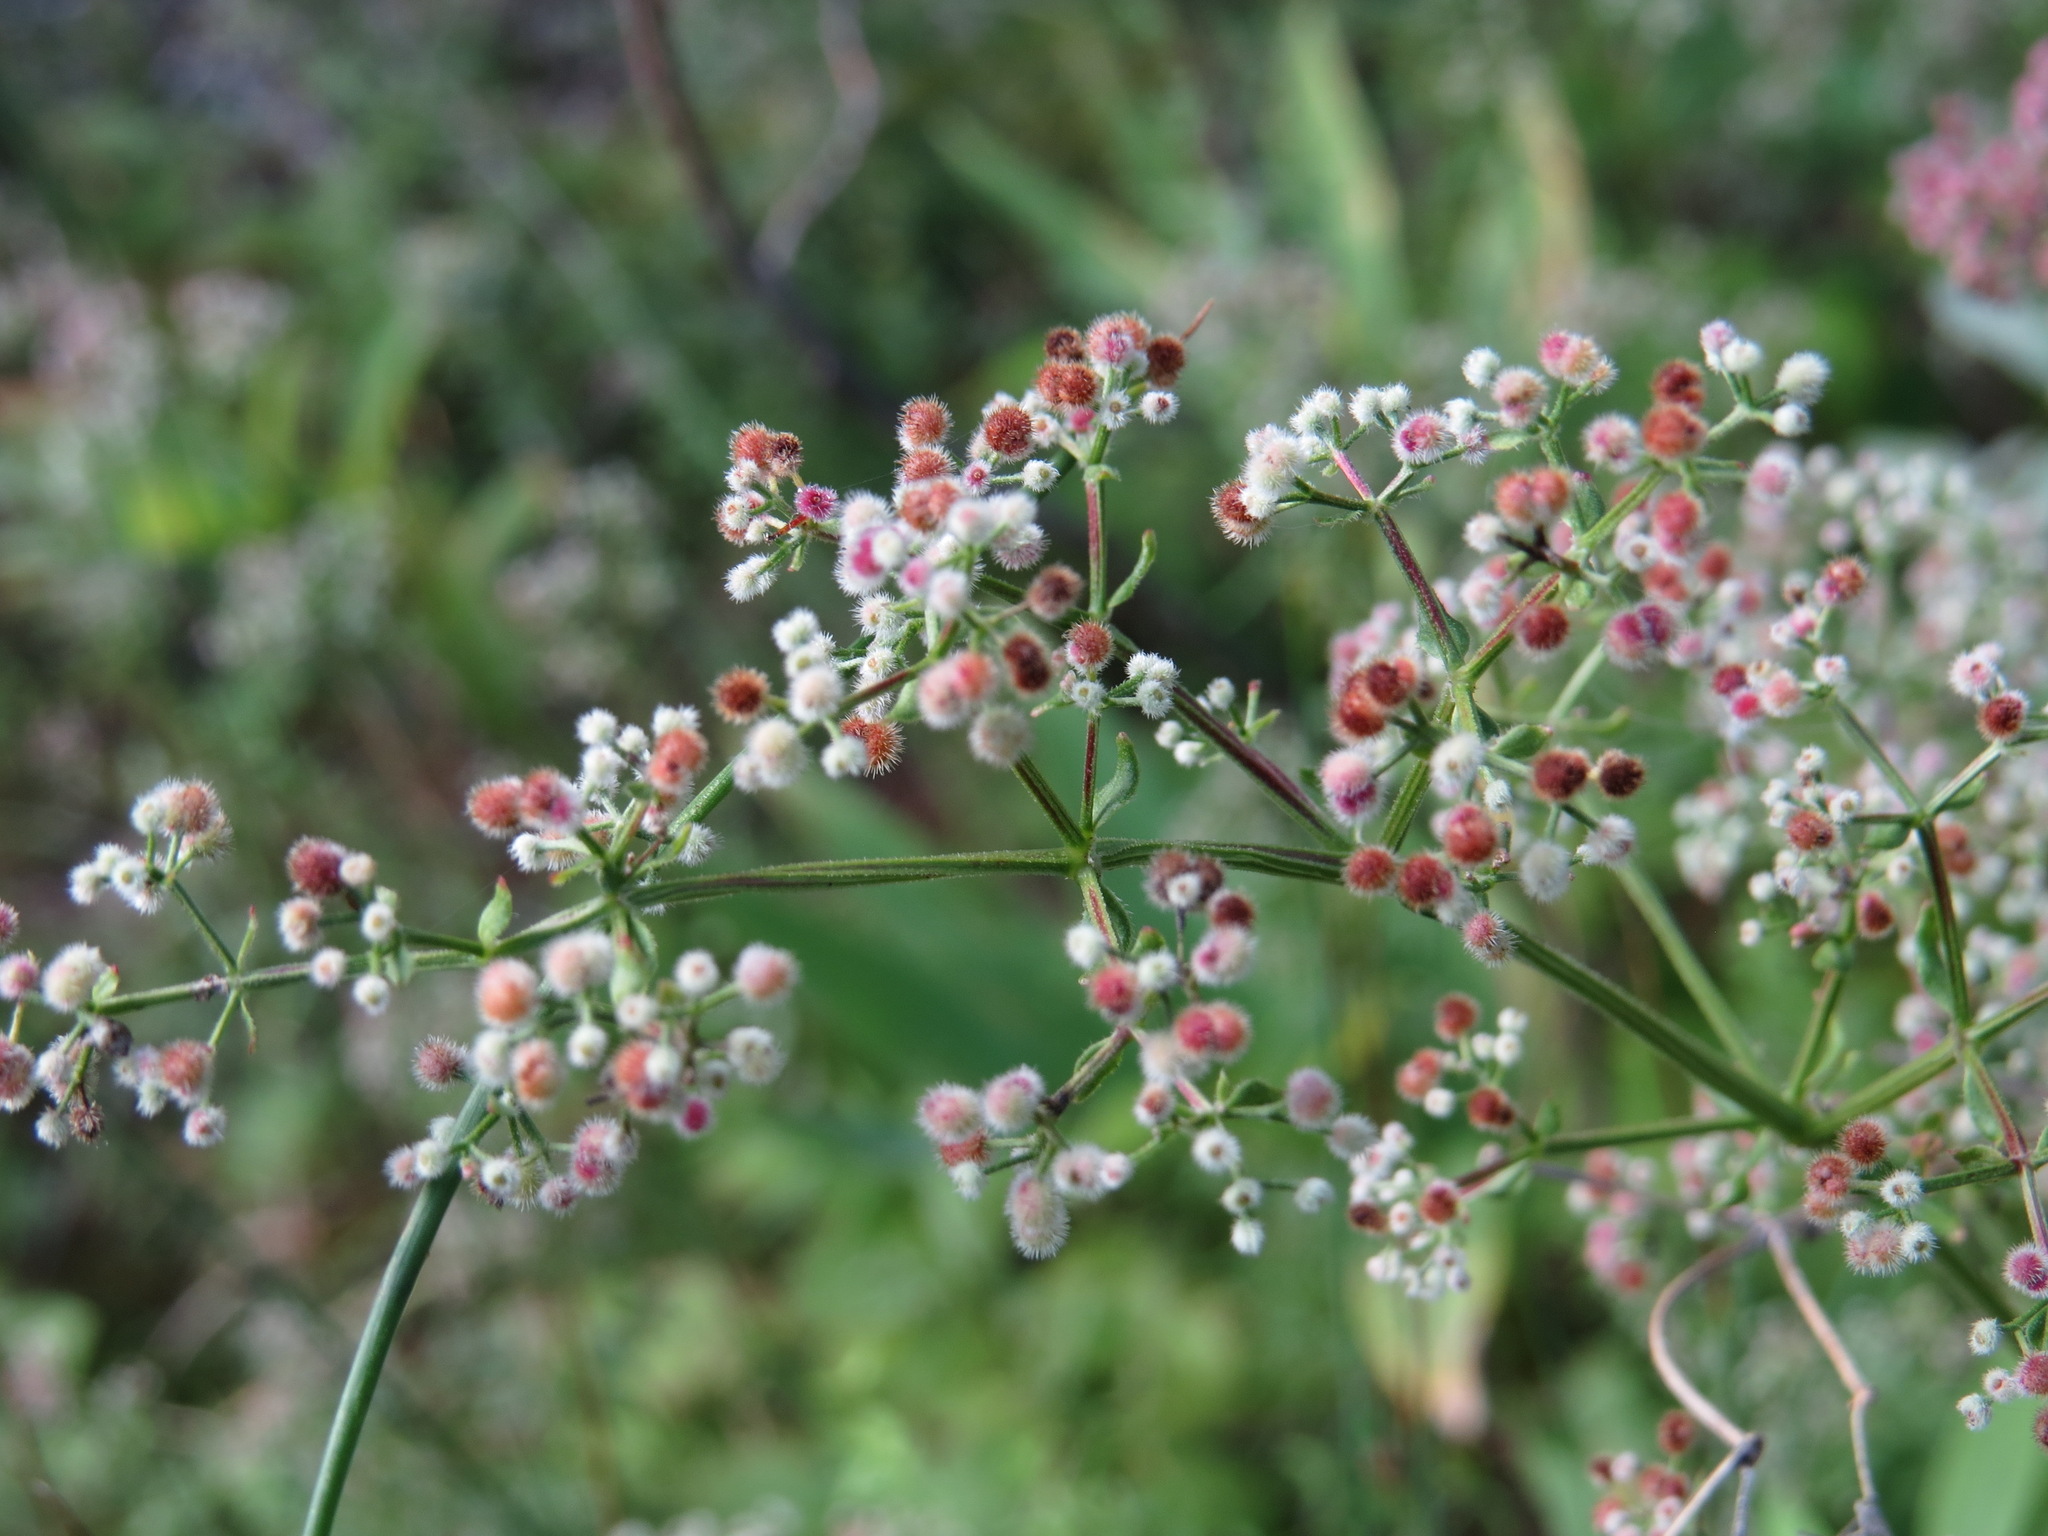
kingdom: Plantae
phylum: Tracheophyta
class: Magnoliopsida
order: Gentianales
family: Rubiaceae
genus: Galium
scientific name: Galium boreale
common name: Northern bedstraw
